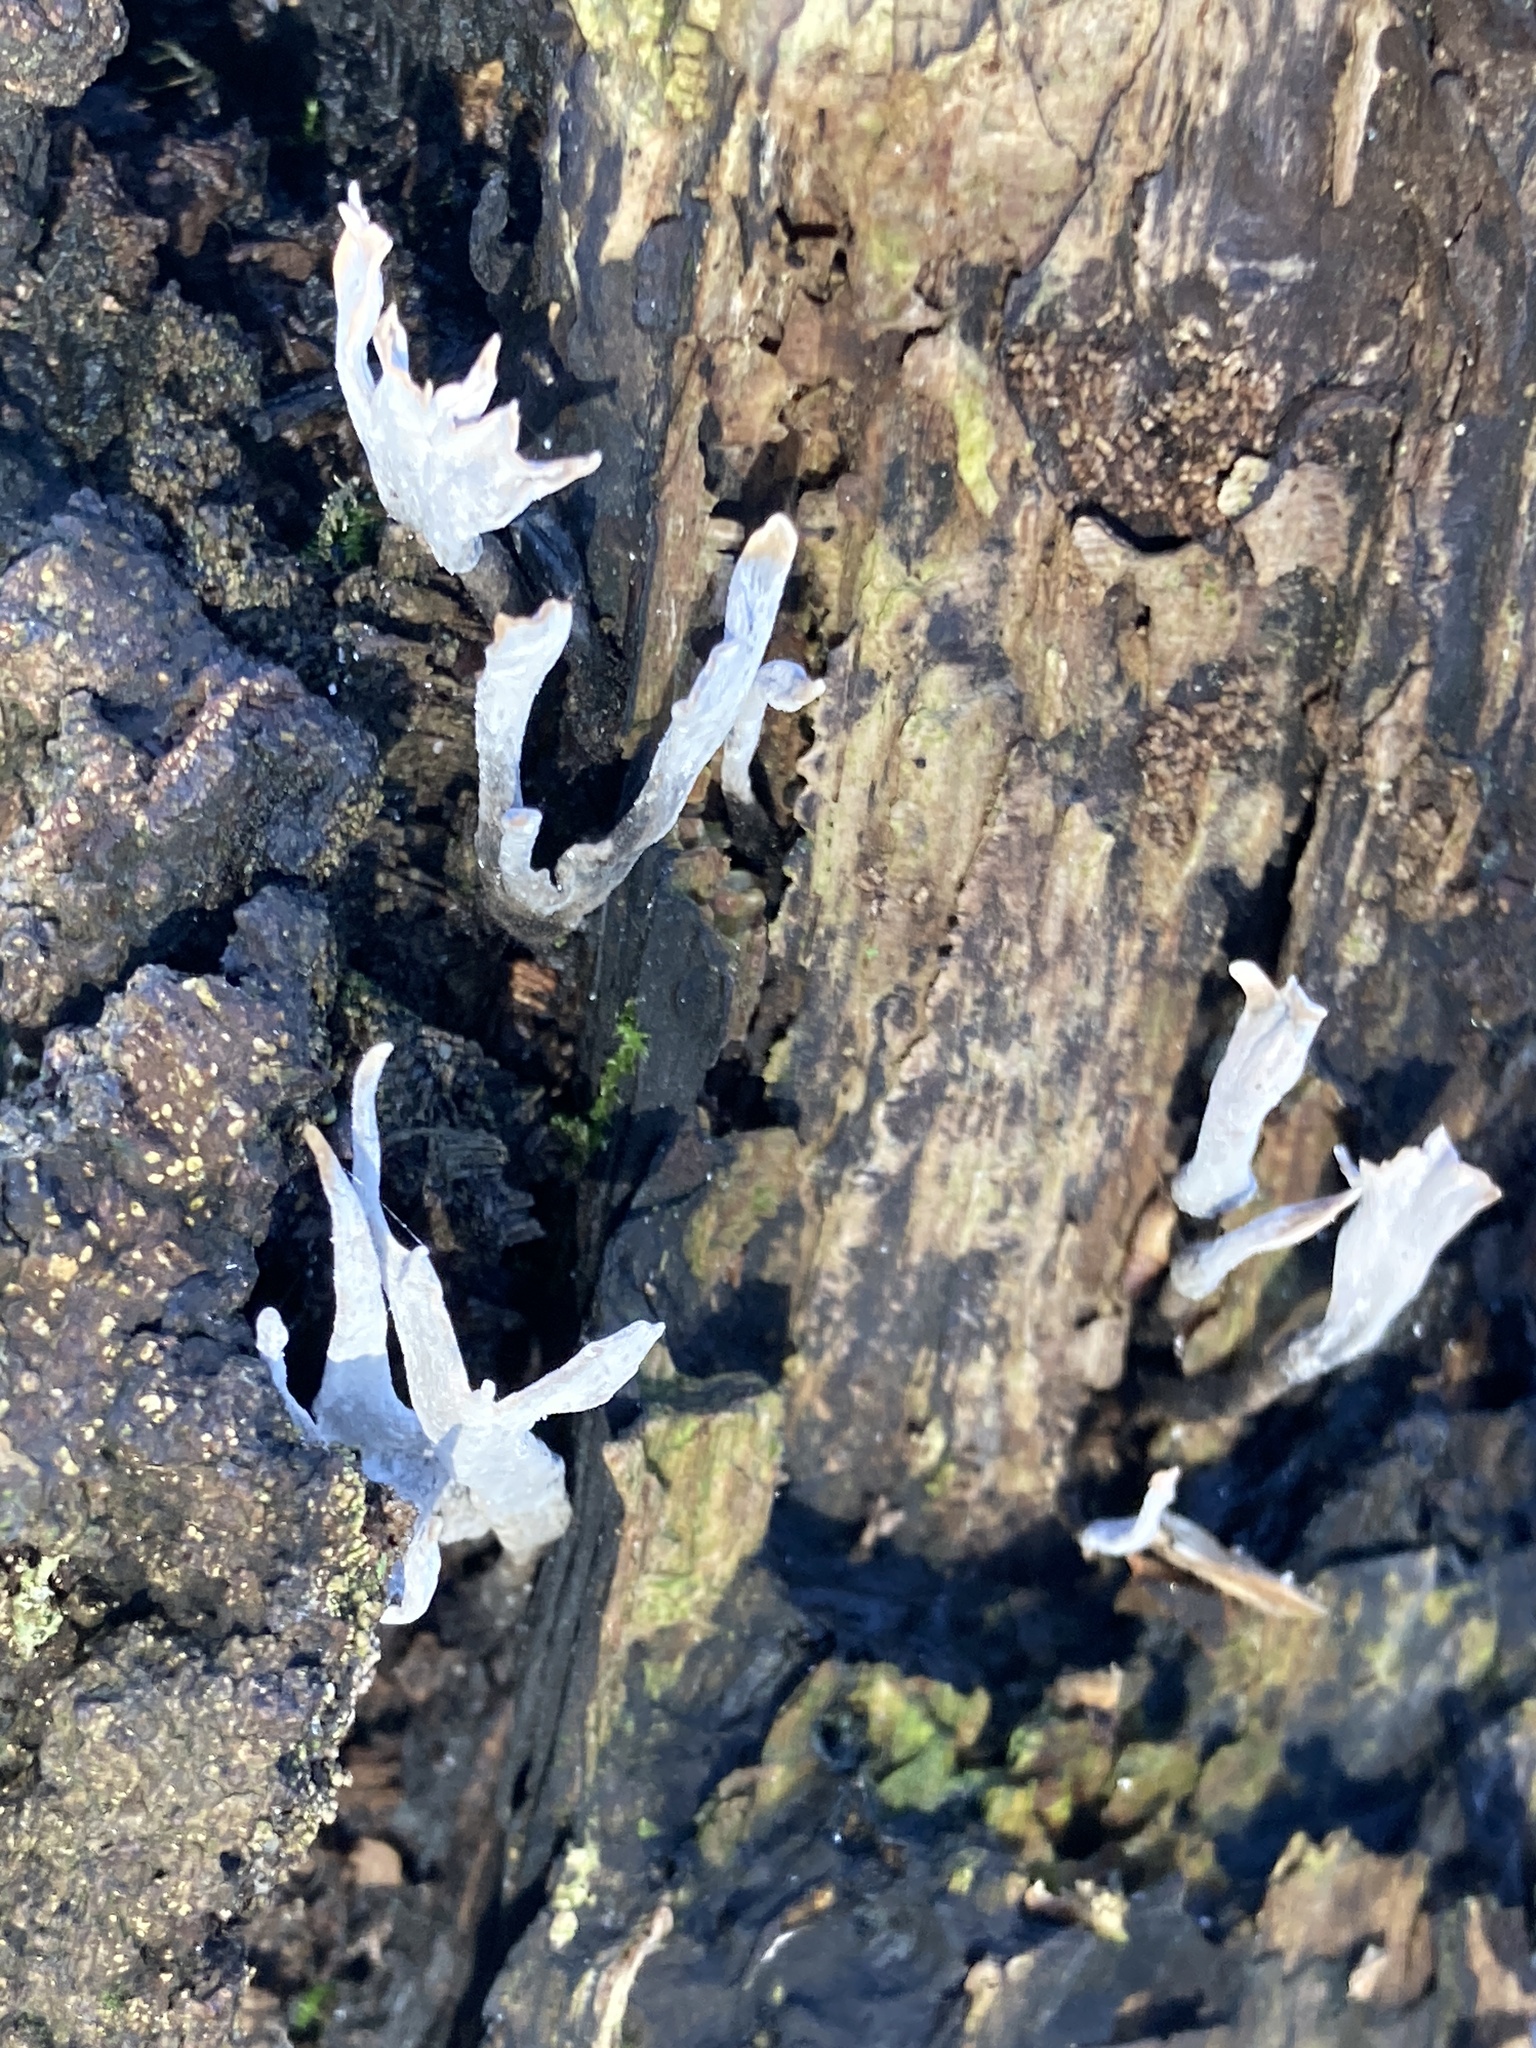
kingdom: Fungi
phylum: Ascomycota
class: Sordariomycetes
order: Xylariales
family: Xylariaceae
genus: Xylaria
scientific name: Xylaria hypoxylon
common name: Candle-snuff fungus
